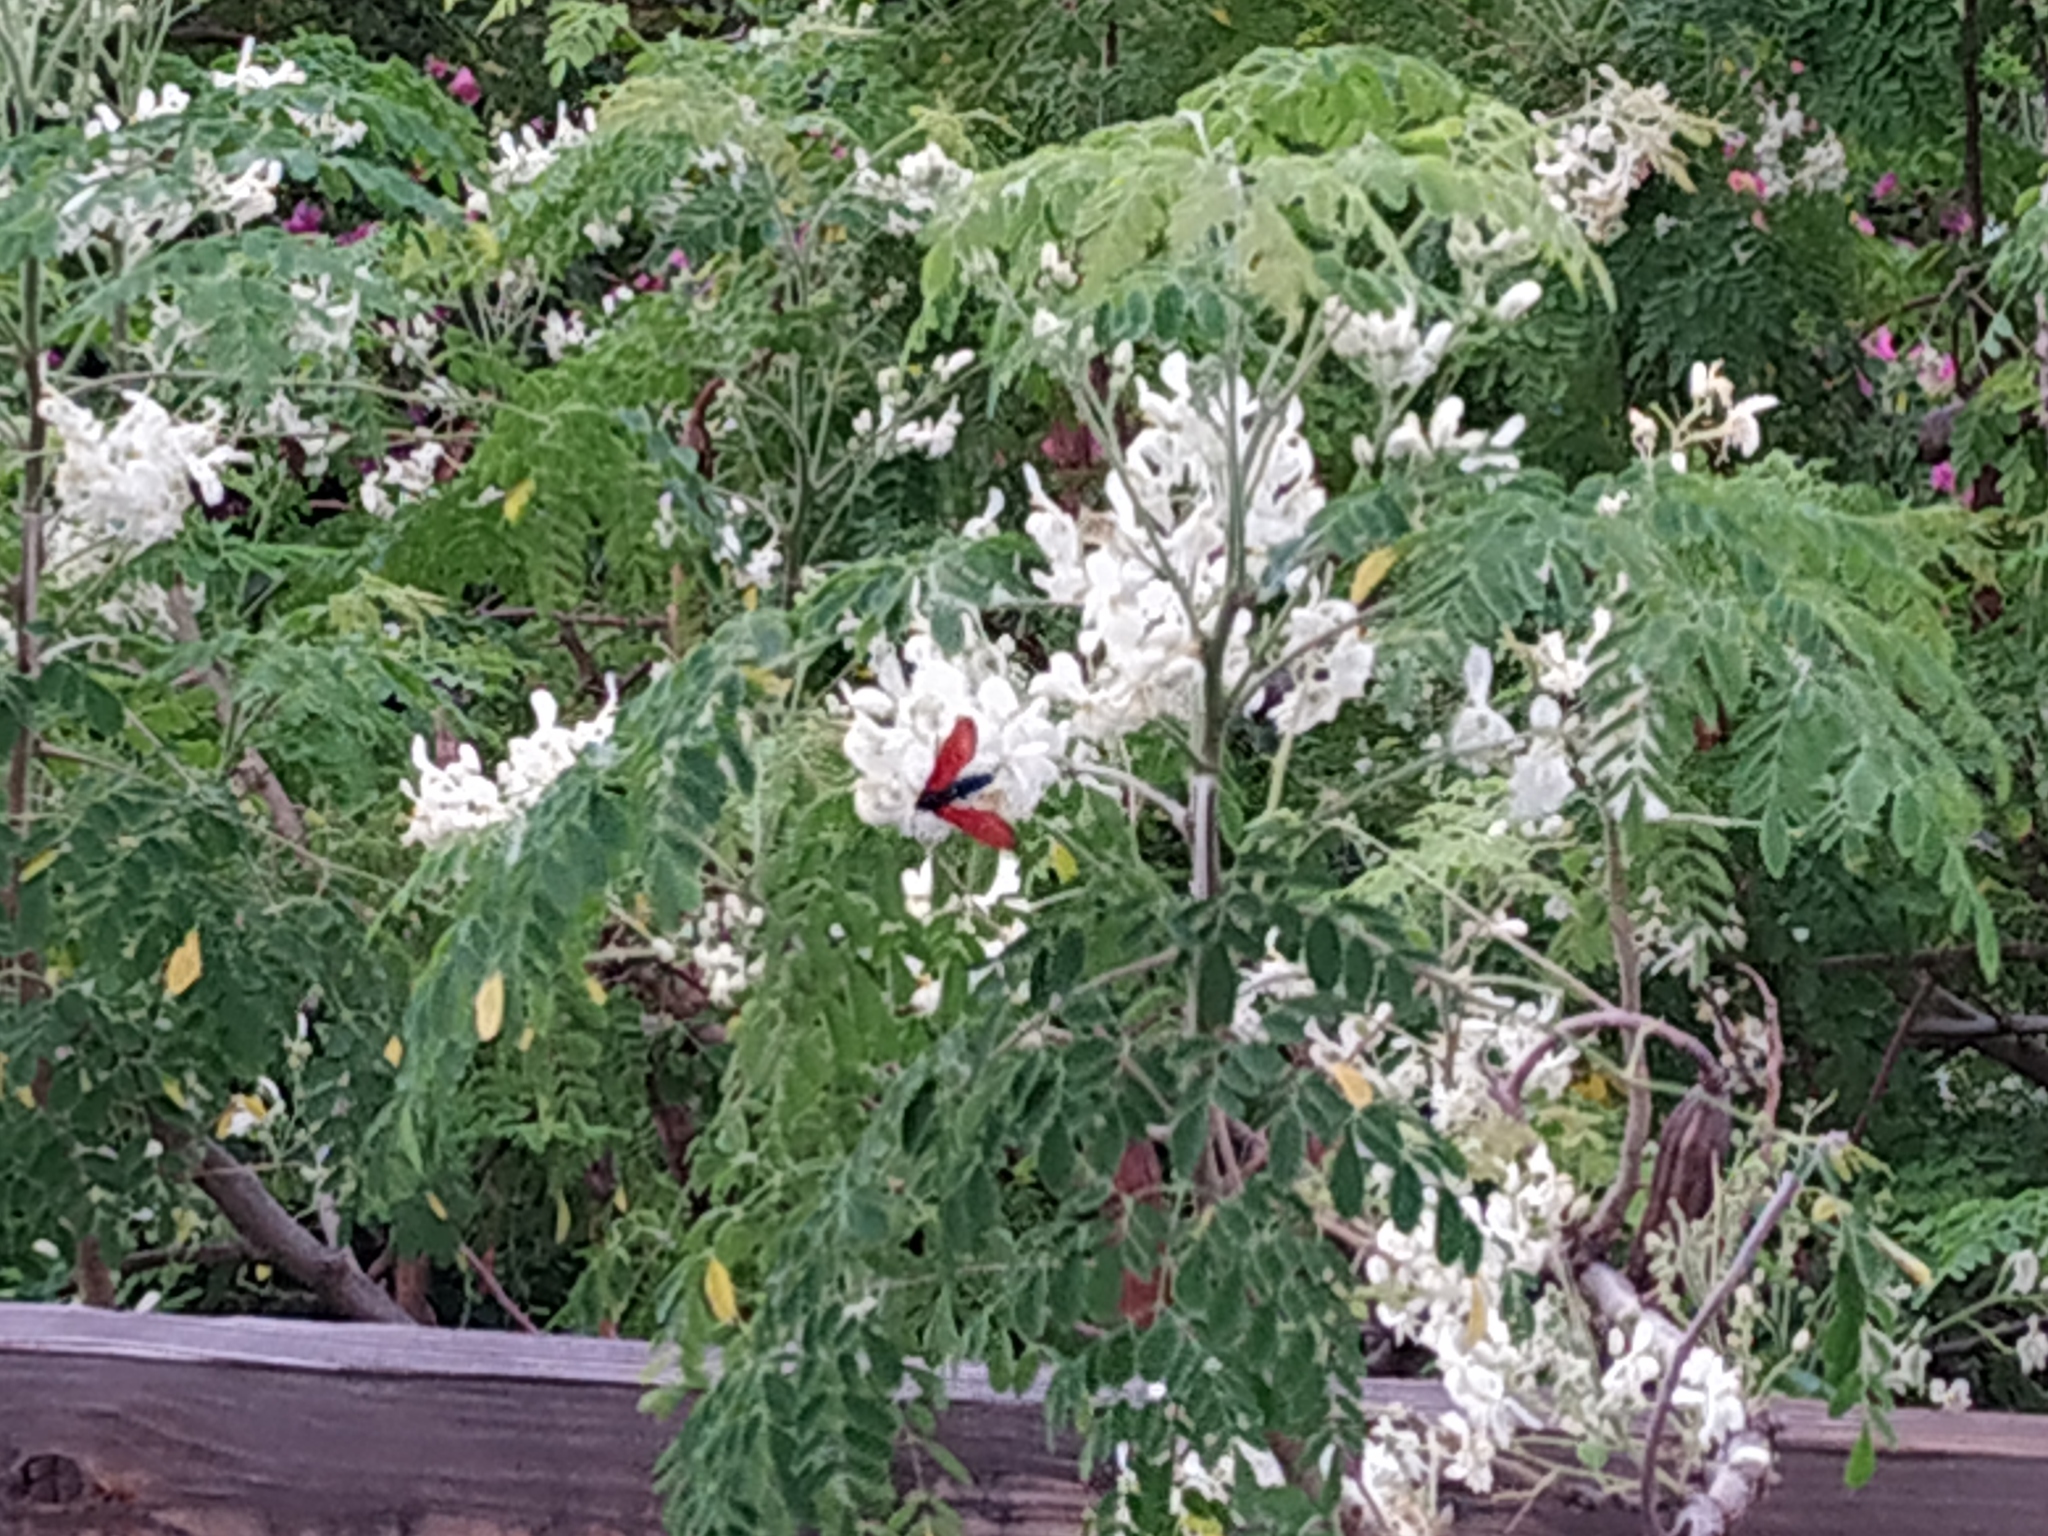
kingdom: Animalia
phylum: Arthropoda
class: Insecta
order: Lepidoptera
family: Erebidae
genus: Empyreuma
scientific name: Empyreuma pugione
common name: Spotted oleander caterpillar moth
